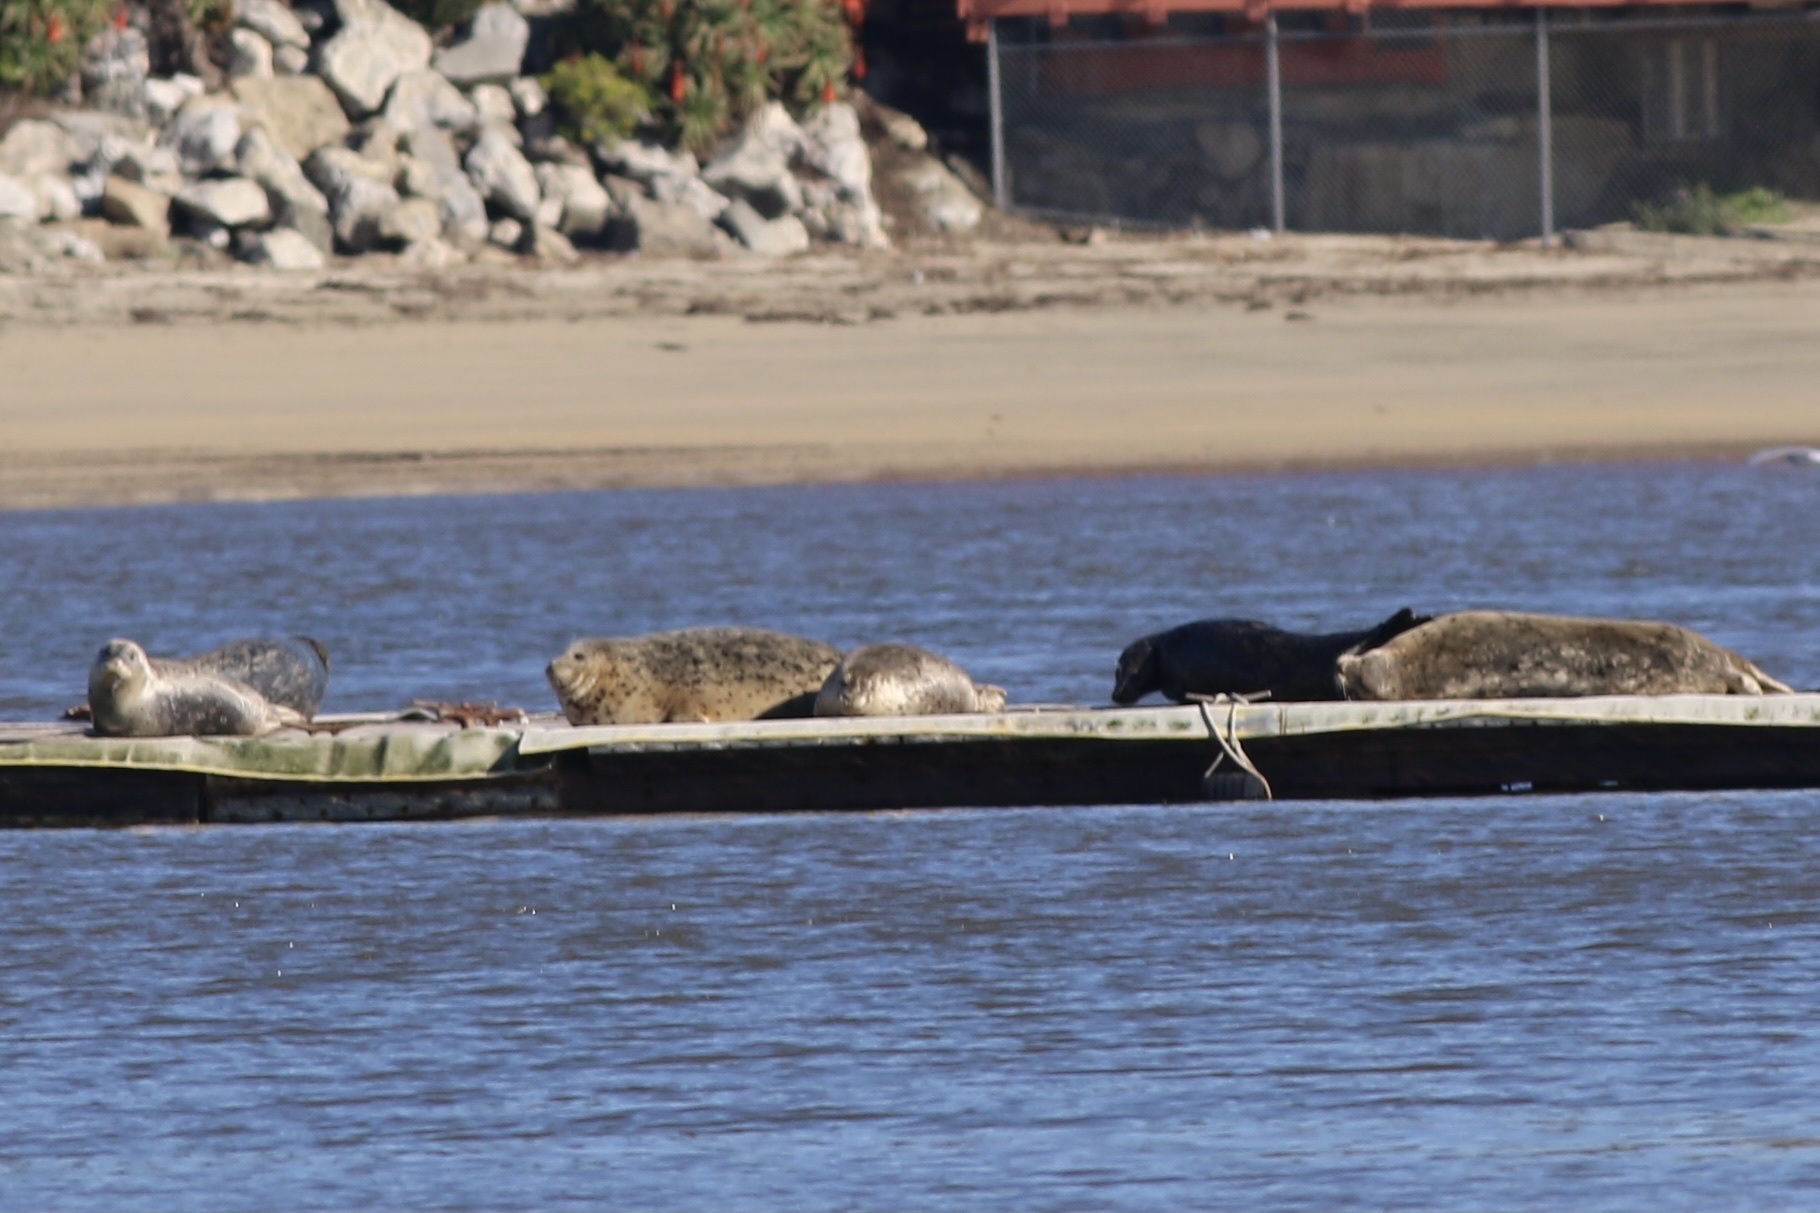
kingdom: Animalia
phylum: Chordata
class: Mammalia
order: Carnivora
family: Phocidae
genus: Phoca
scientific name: Phoca vitulina
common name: Harbor seal
